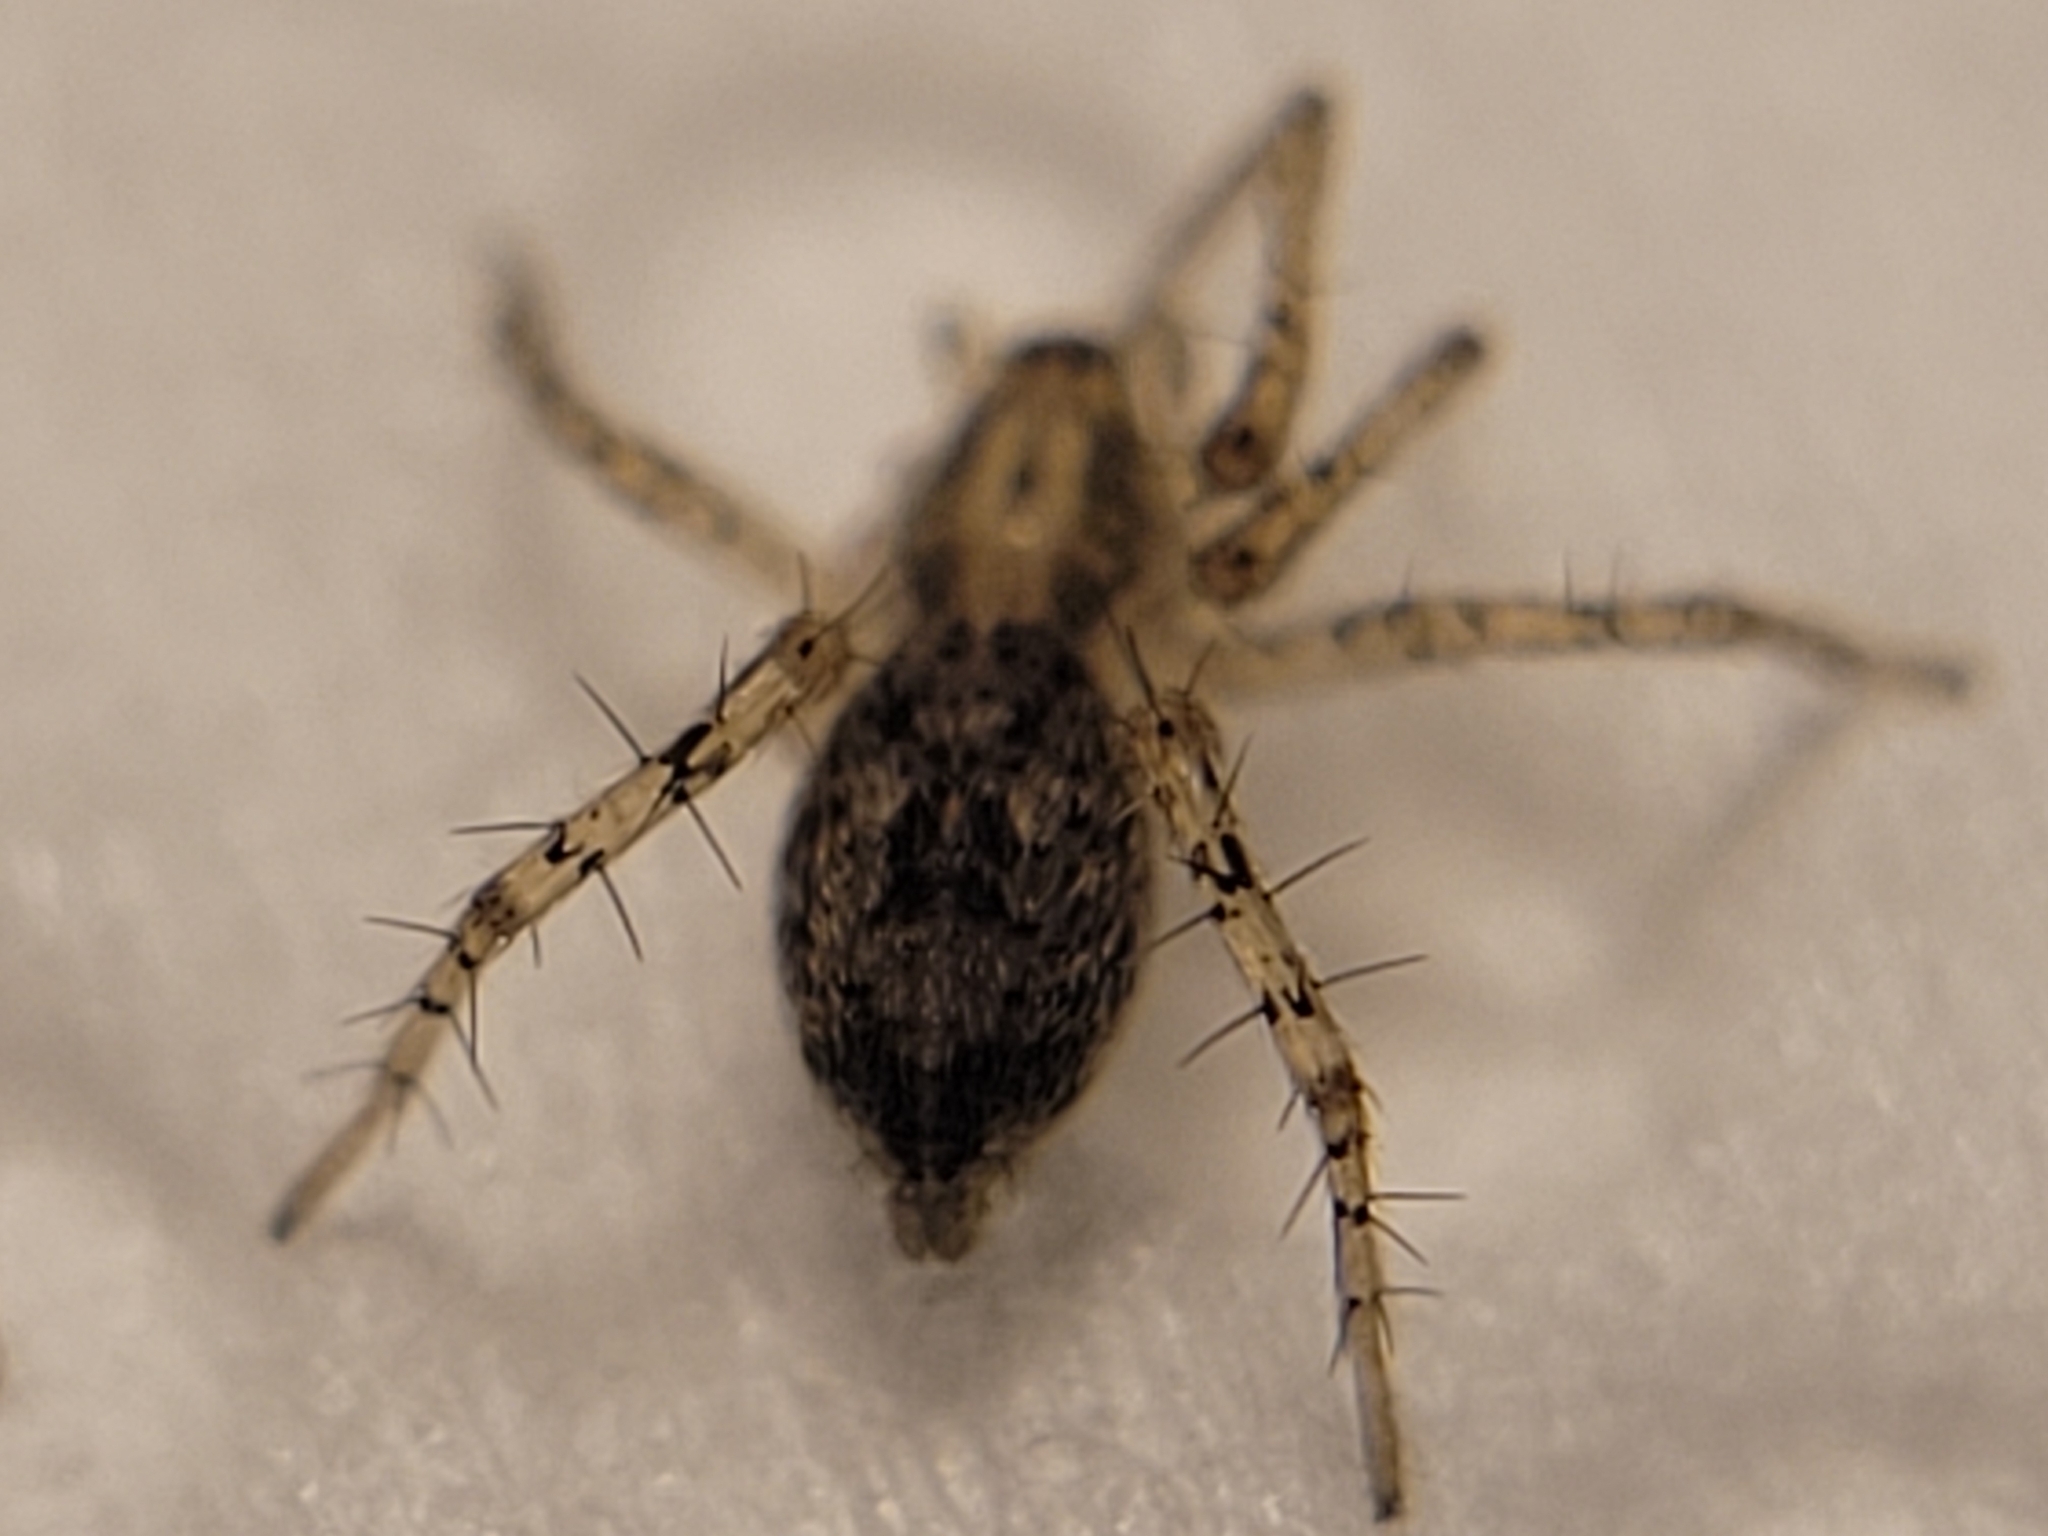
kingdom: Animalia
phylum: Arthropoda
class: Arachnida
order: Araneae
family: Anyphaenidae
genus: Anyphaena
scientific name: Anyphaena accentuata
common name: Buzzing spider
